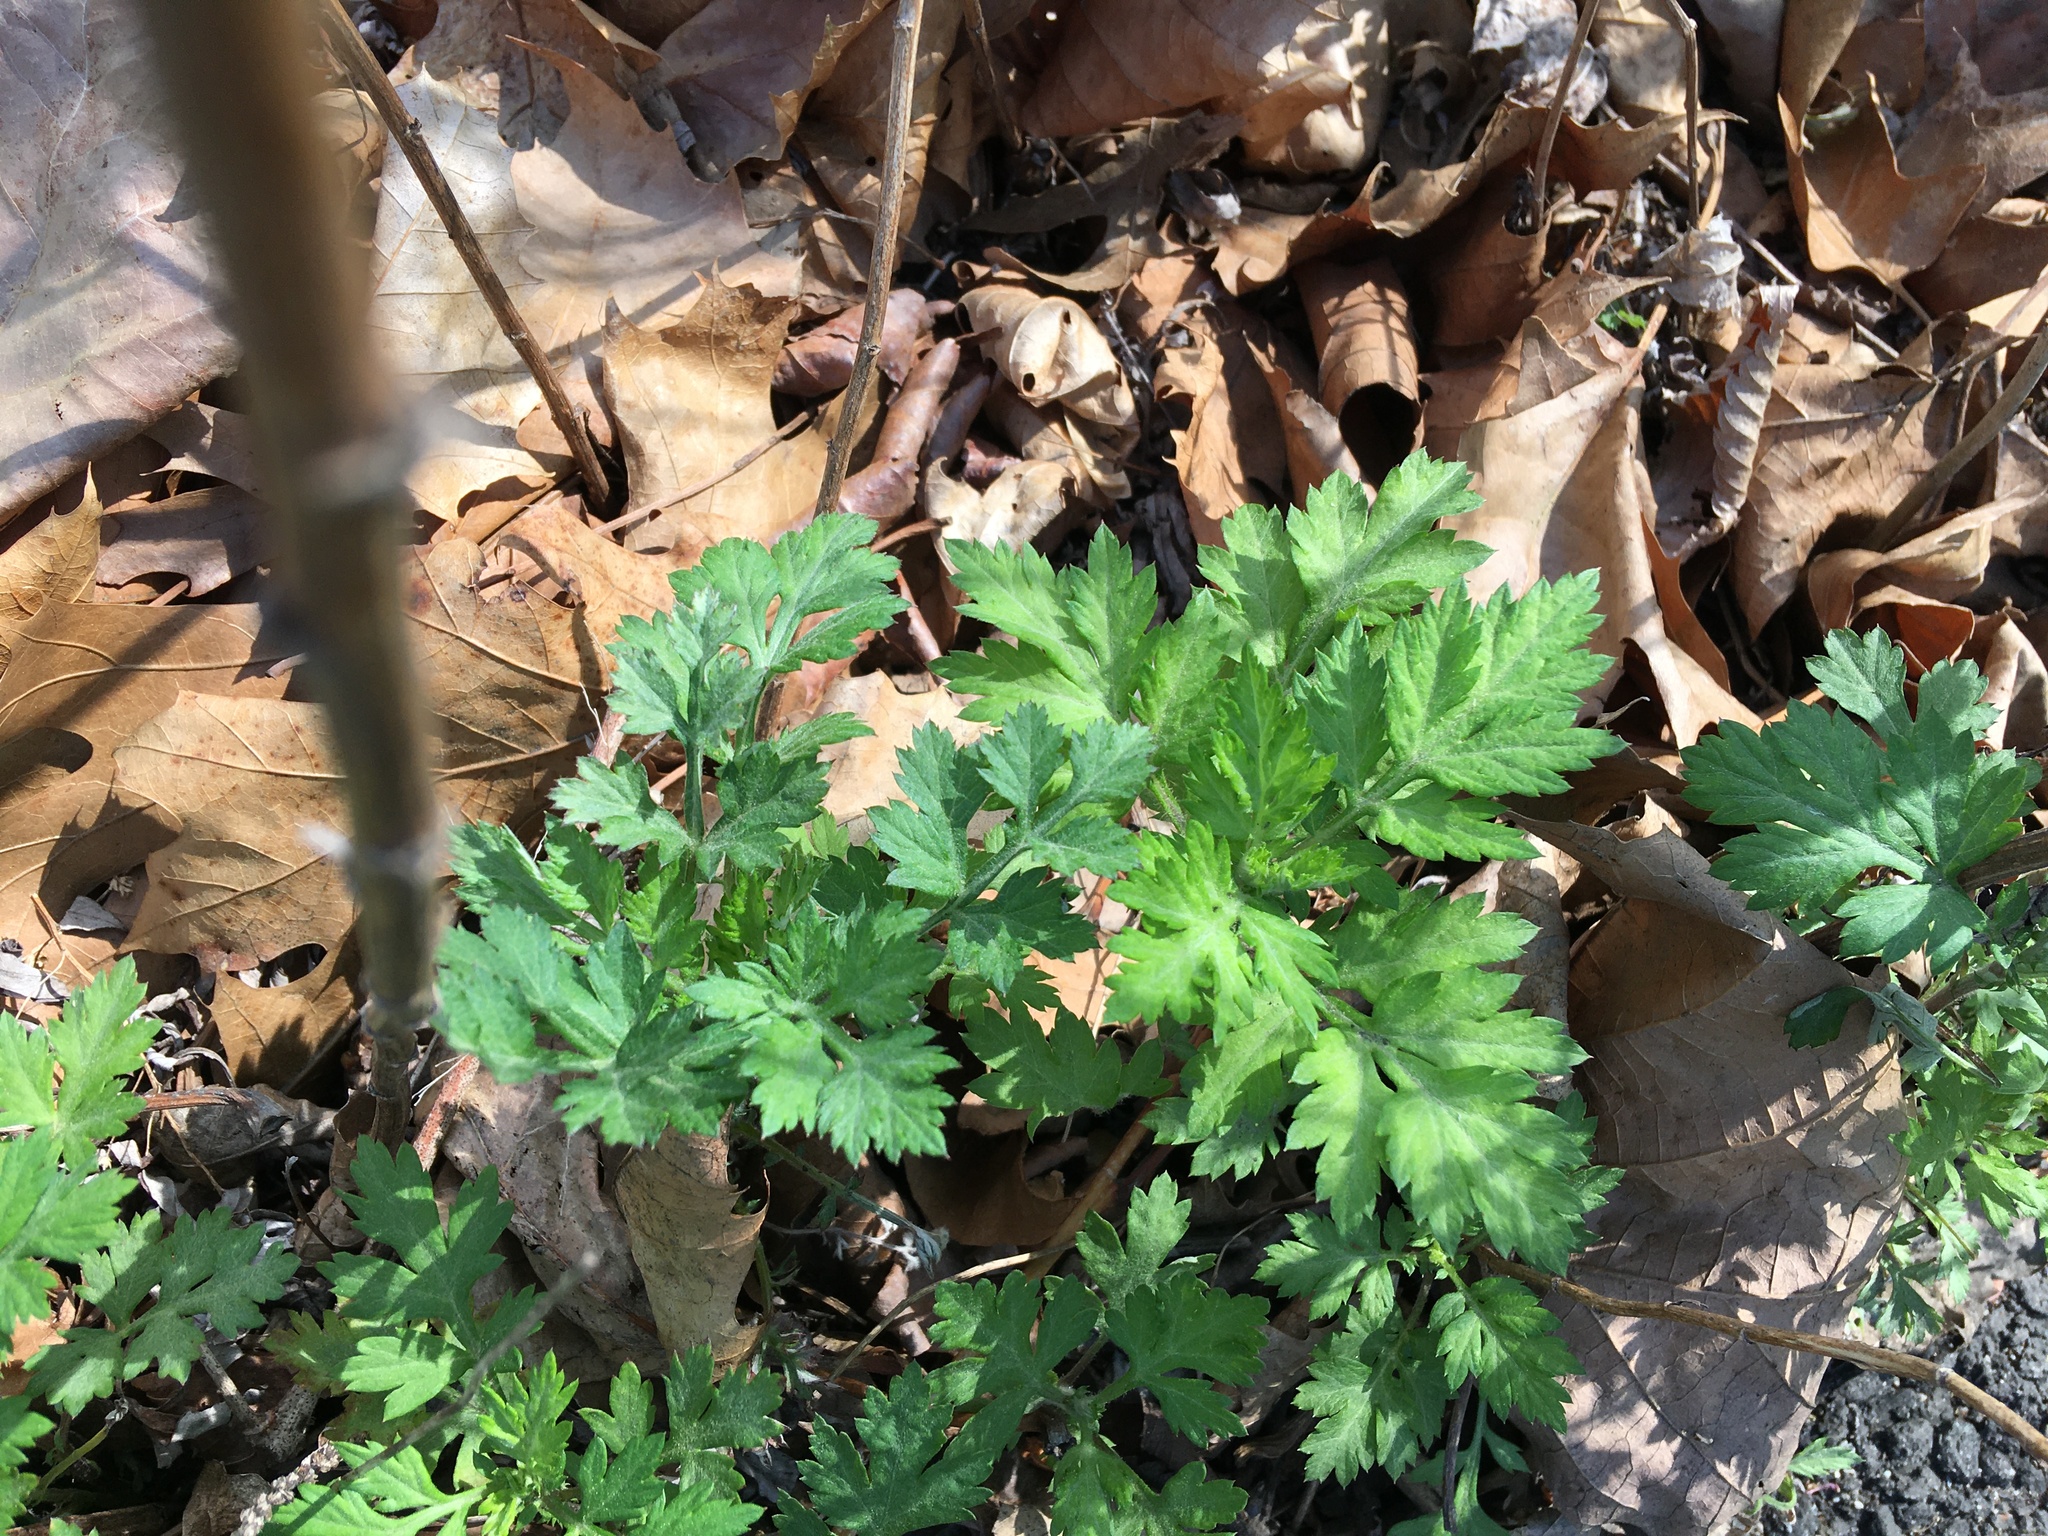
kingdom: Plantae
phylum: Tracheophyta
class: Magnoliopsida
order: Asterales
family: Asteraceae
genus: Artemisia
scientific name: Artemisia vulgaris
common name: Mugwort
